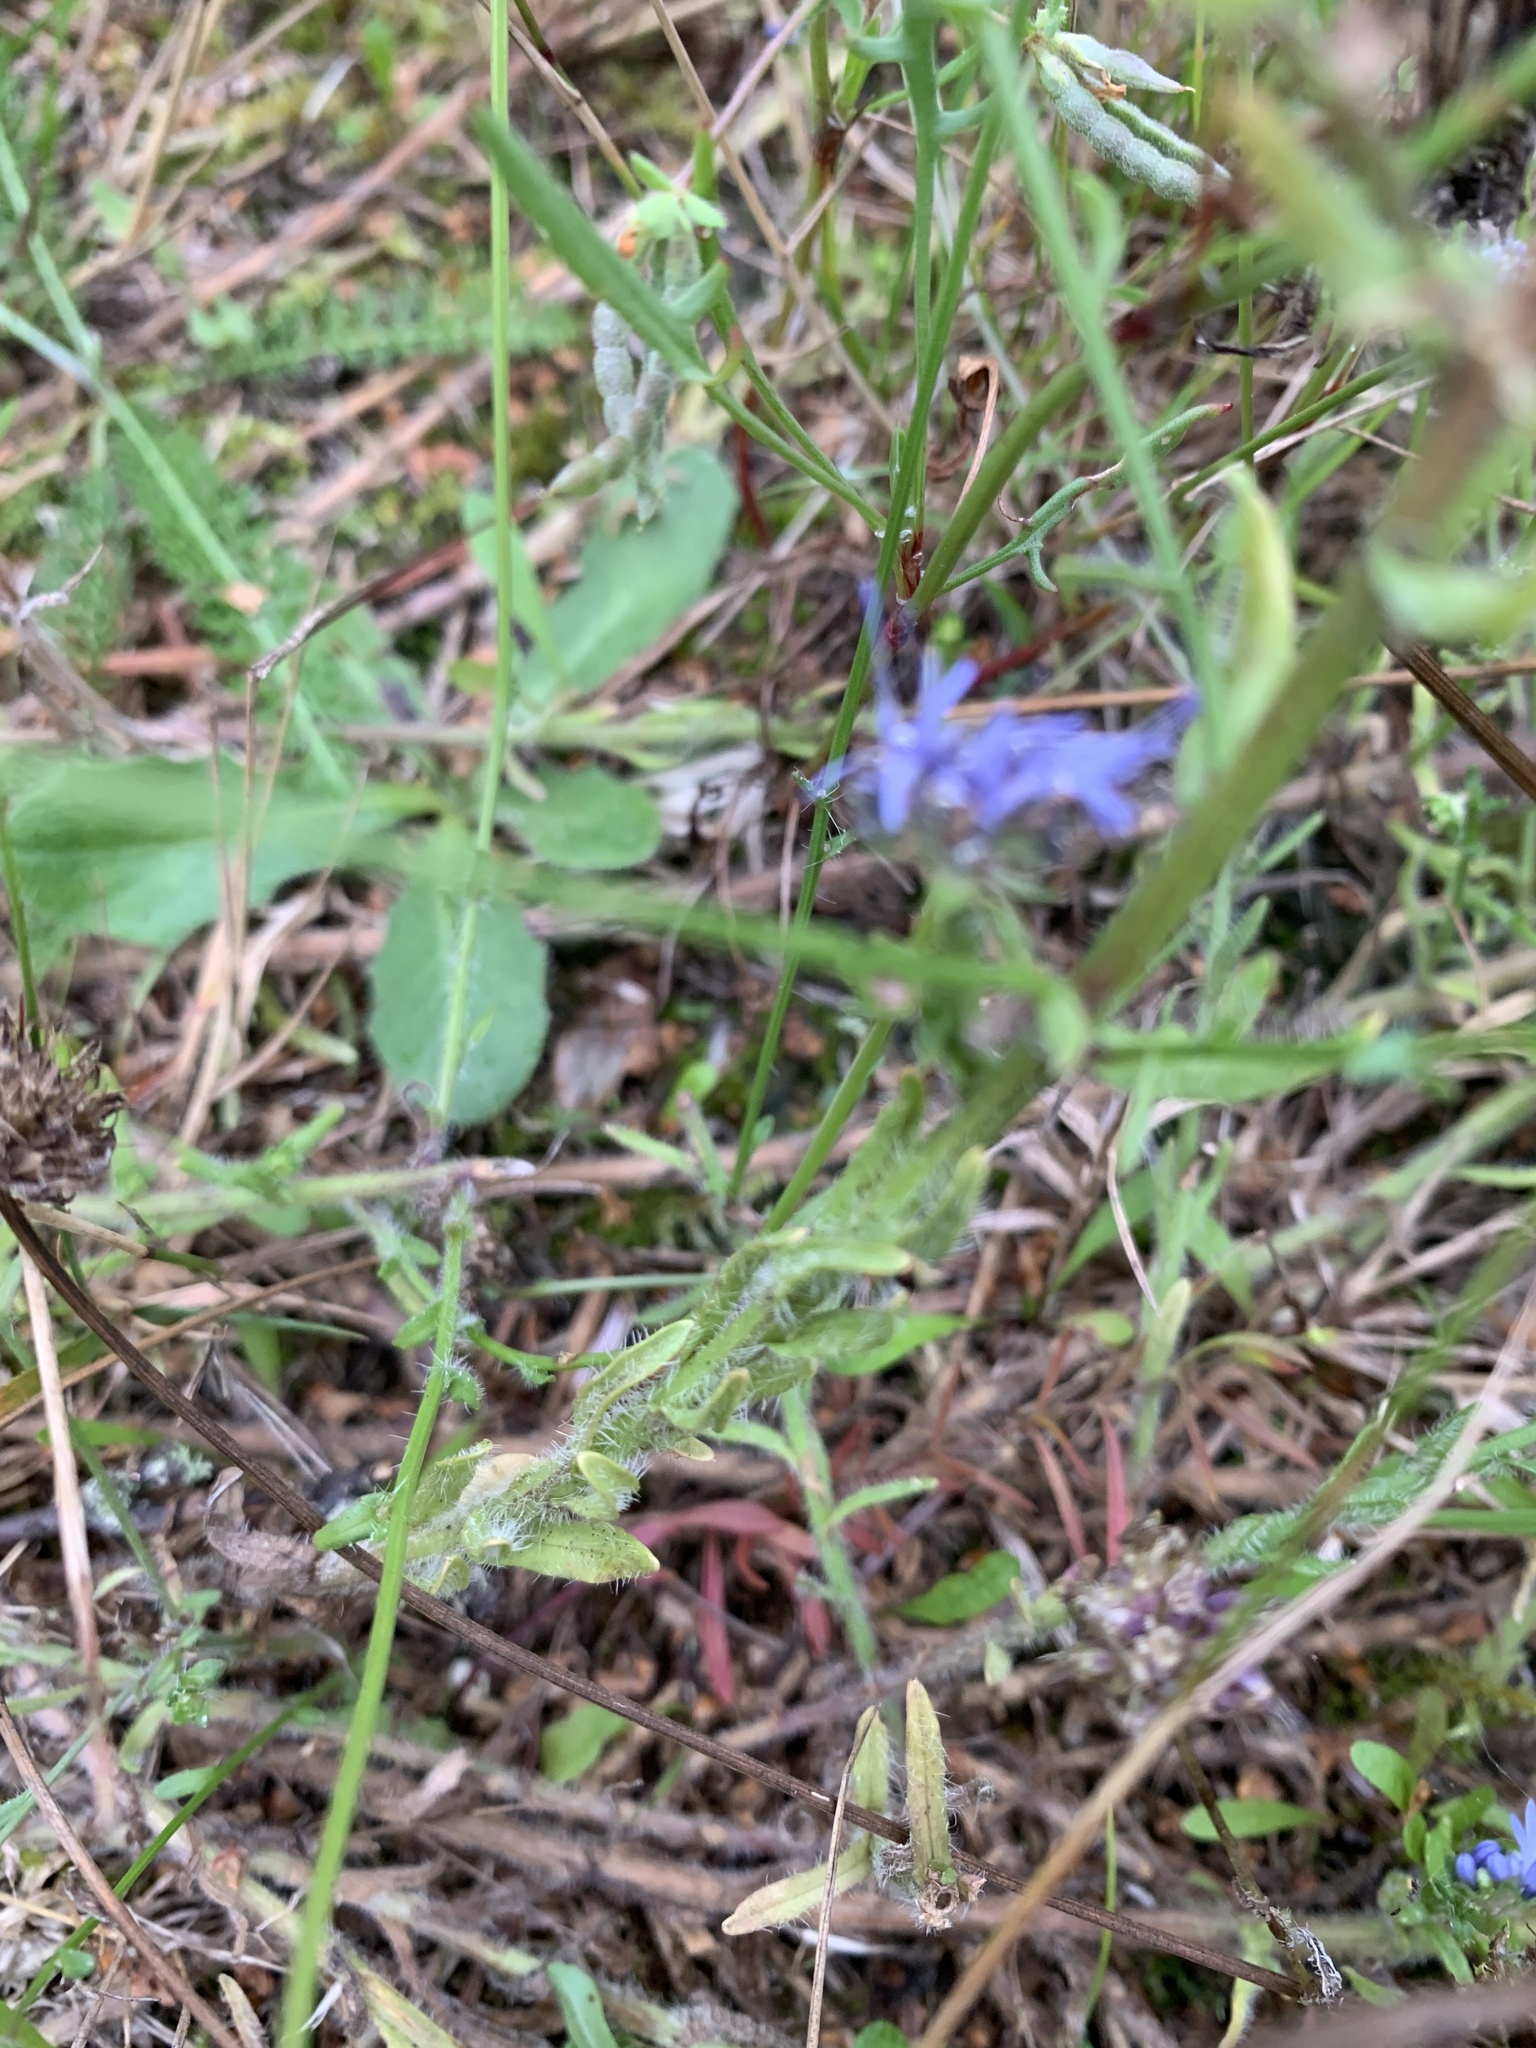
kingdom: Plantae
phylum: Tracheophyta
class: Magnoliopsida
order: Asterales
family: Campanulaceae
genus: Jasione
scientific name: Jasione montana
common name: Sheep's-bit
